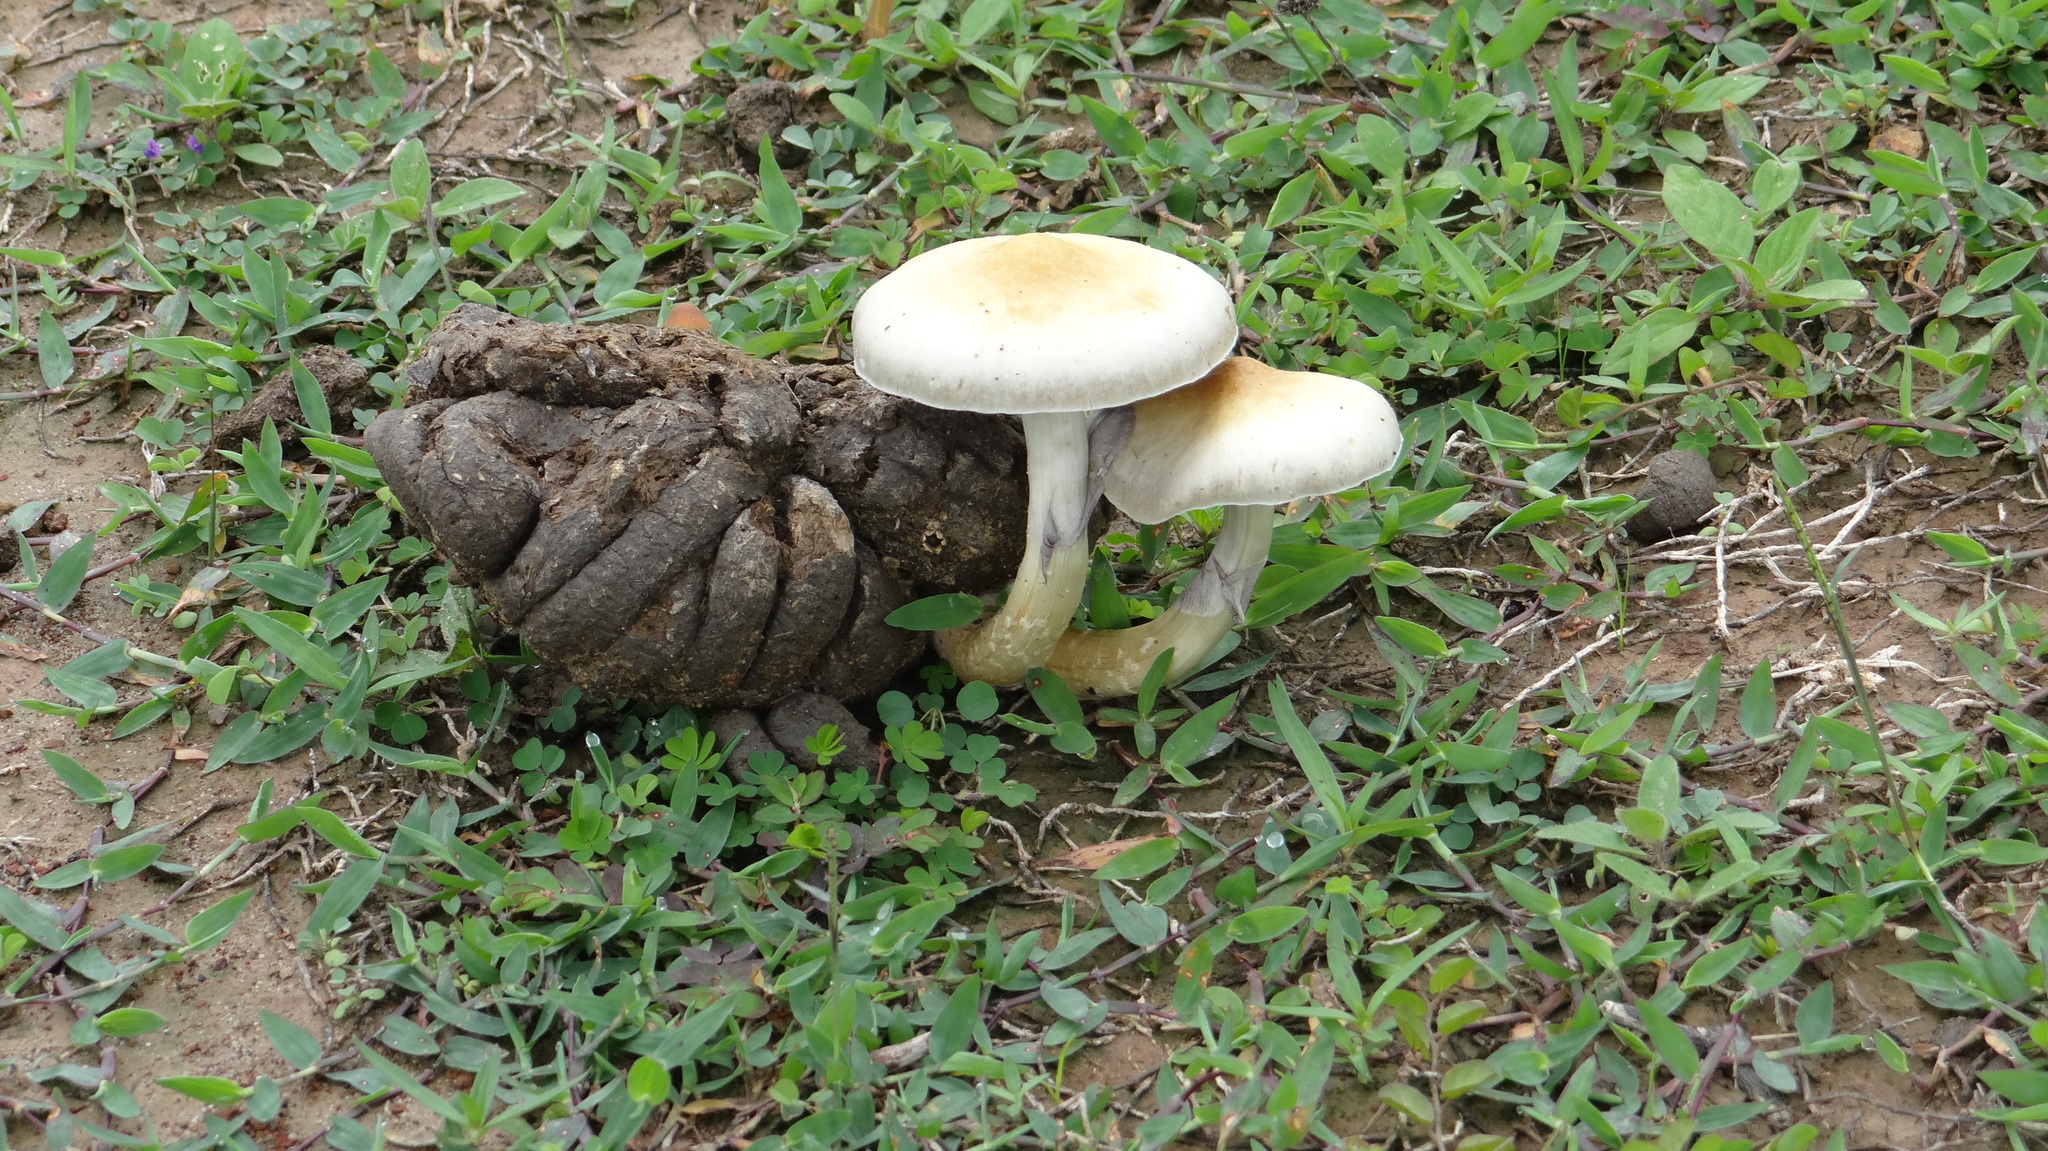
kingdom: Fungi
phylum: Basidiomycota
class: Agaricomycetes
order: Agaricales
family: Hymenogastraceae
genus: Psilocybe
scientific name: Psilocybe cubensis
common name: Golden brownie
